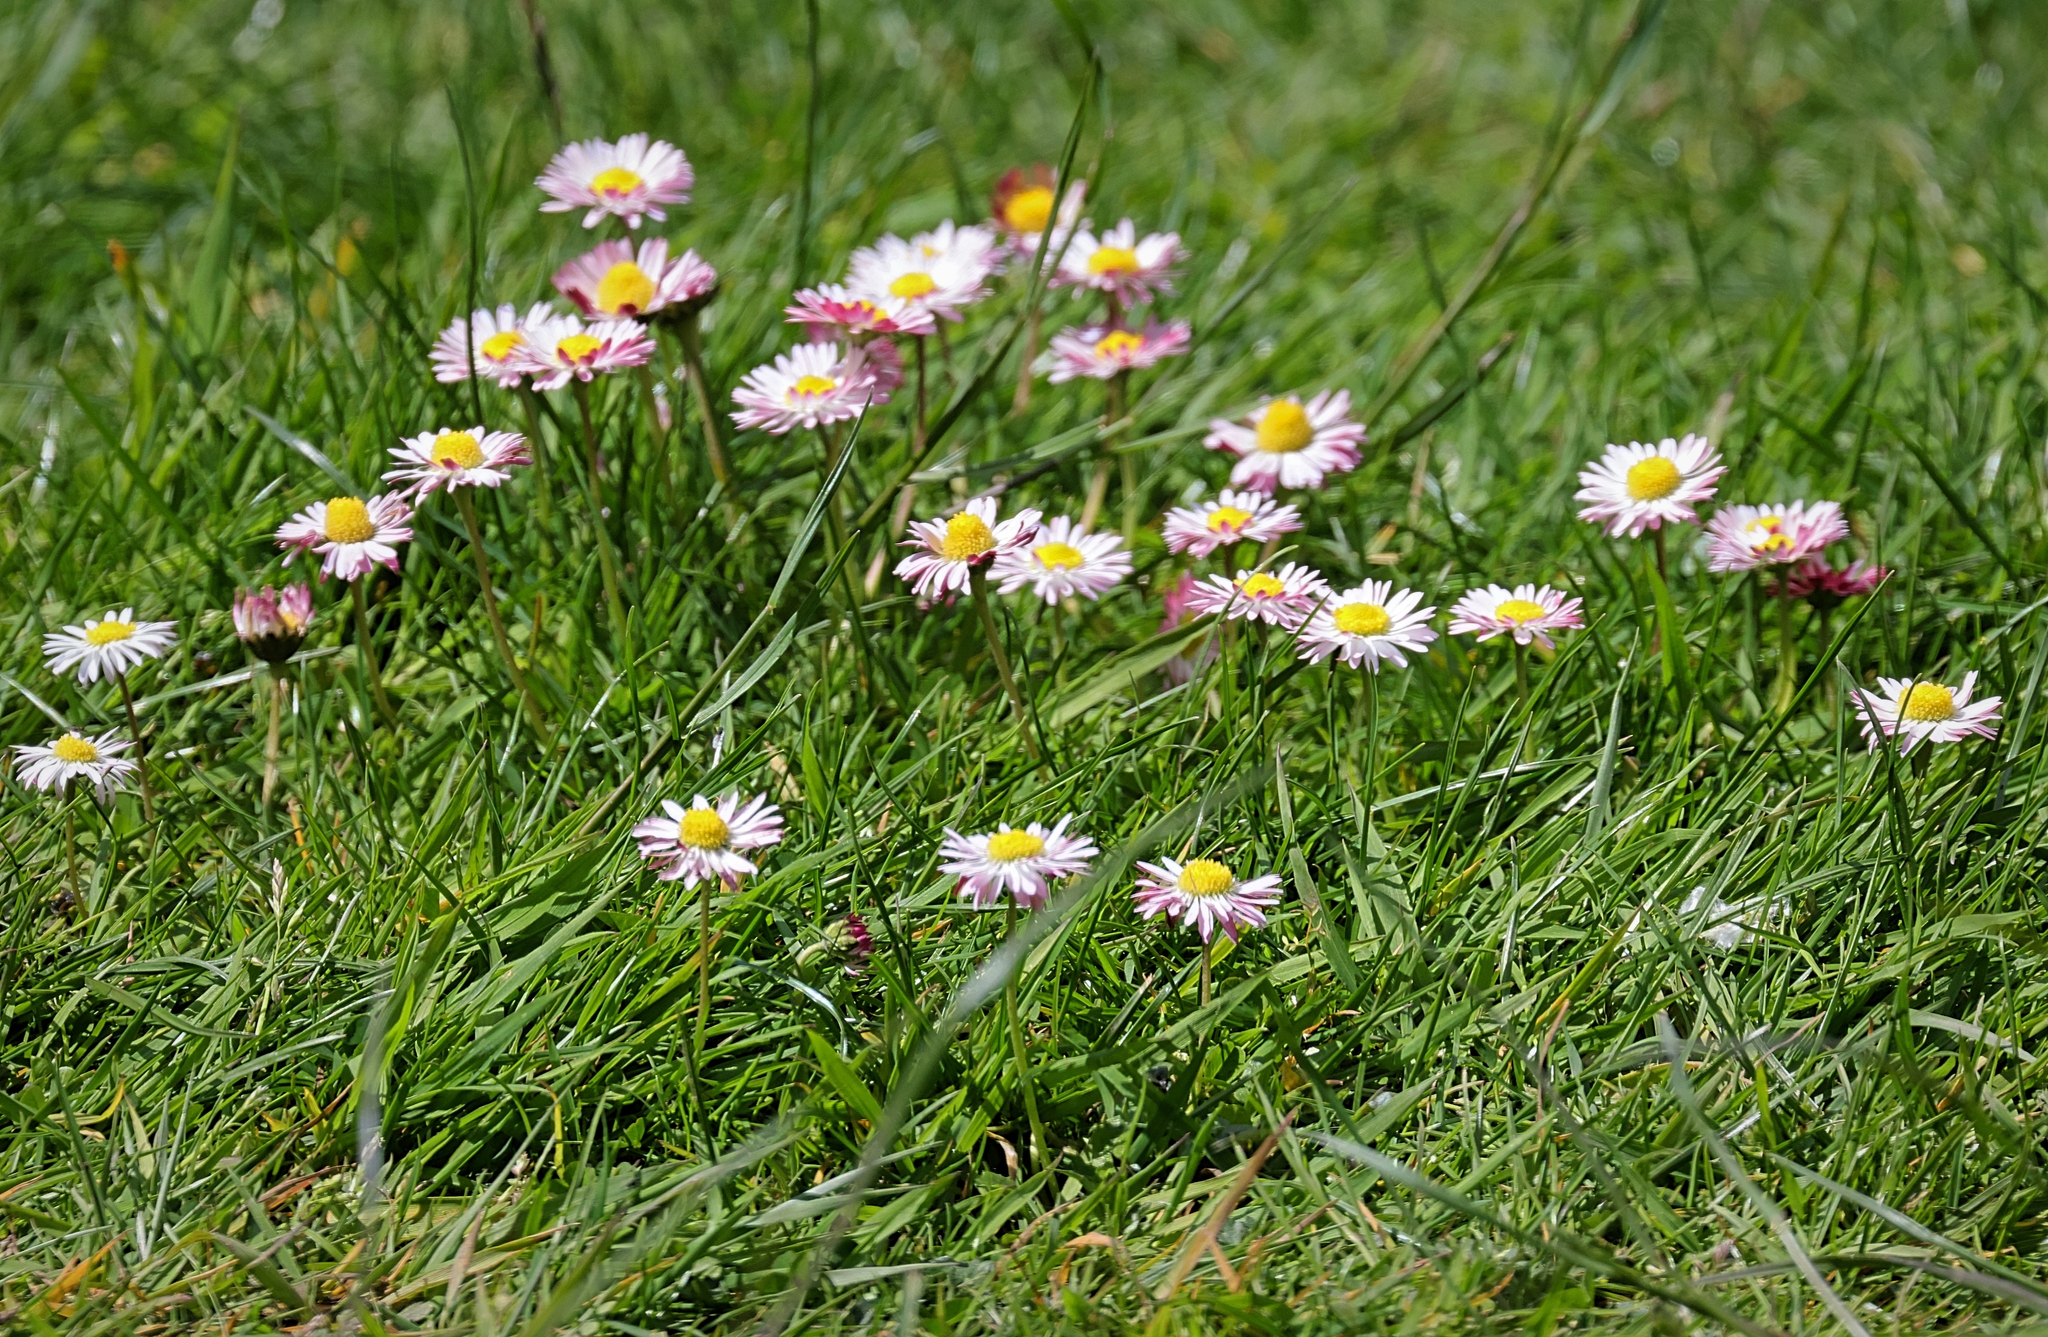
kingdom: Plantae
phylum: Tracheophyta
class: Magnoliopsida
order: Asterales
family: Asteraceae
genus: Bellis
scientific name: Bellis perennis
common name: Lawndaisy
